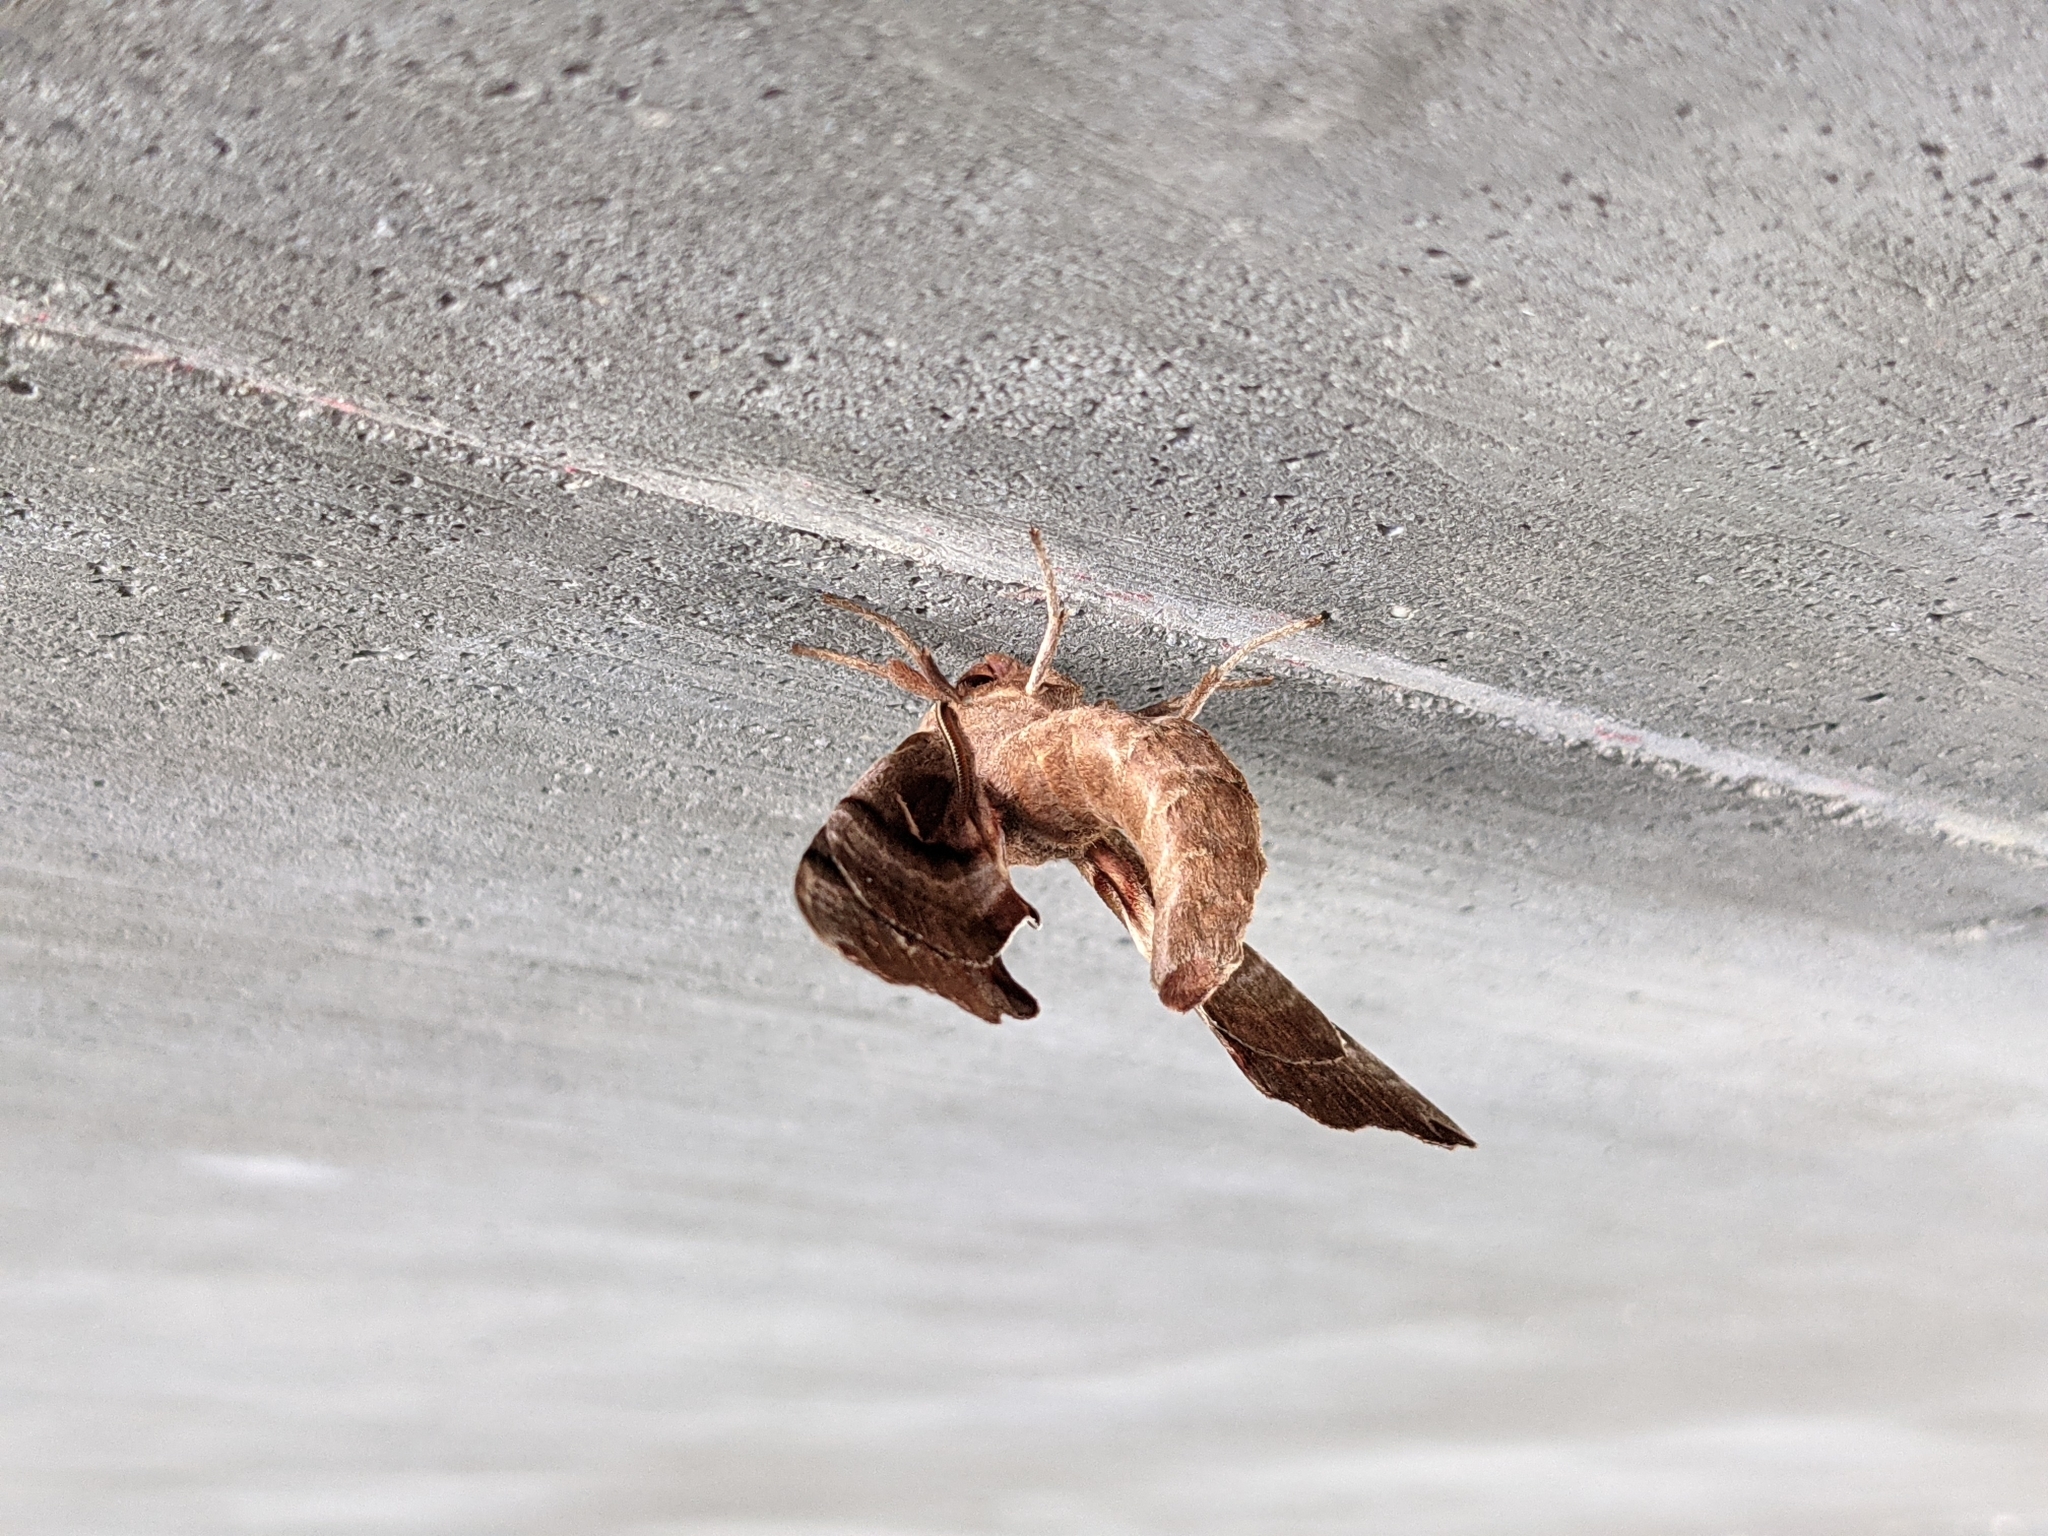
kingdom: Animalia
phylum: Arthropoda
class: Insecta
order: Lepidoptera
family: Sphingidae
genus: Smerinthus
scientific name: Smerinthus jamaicensis
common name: Twin spotted sphinx
